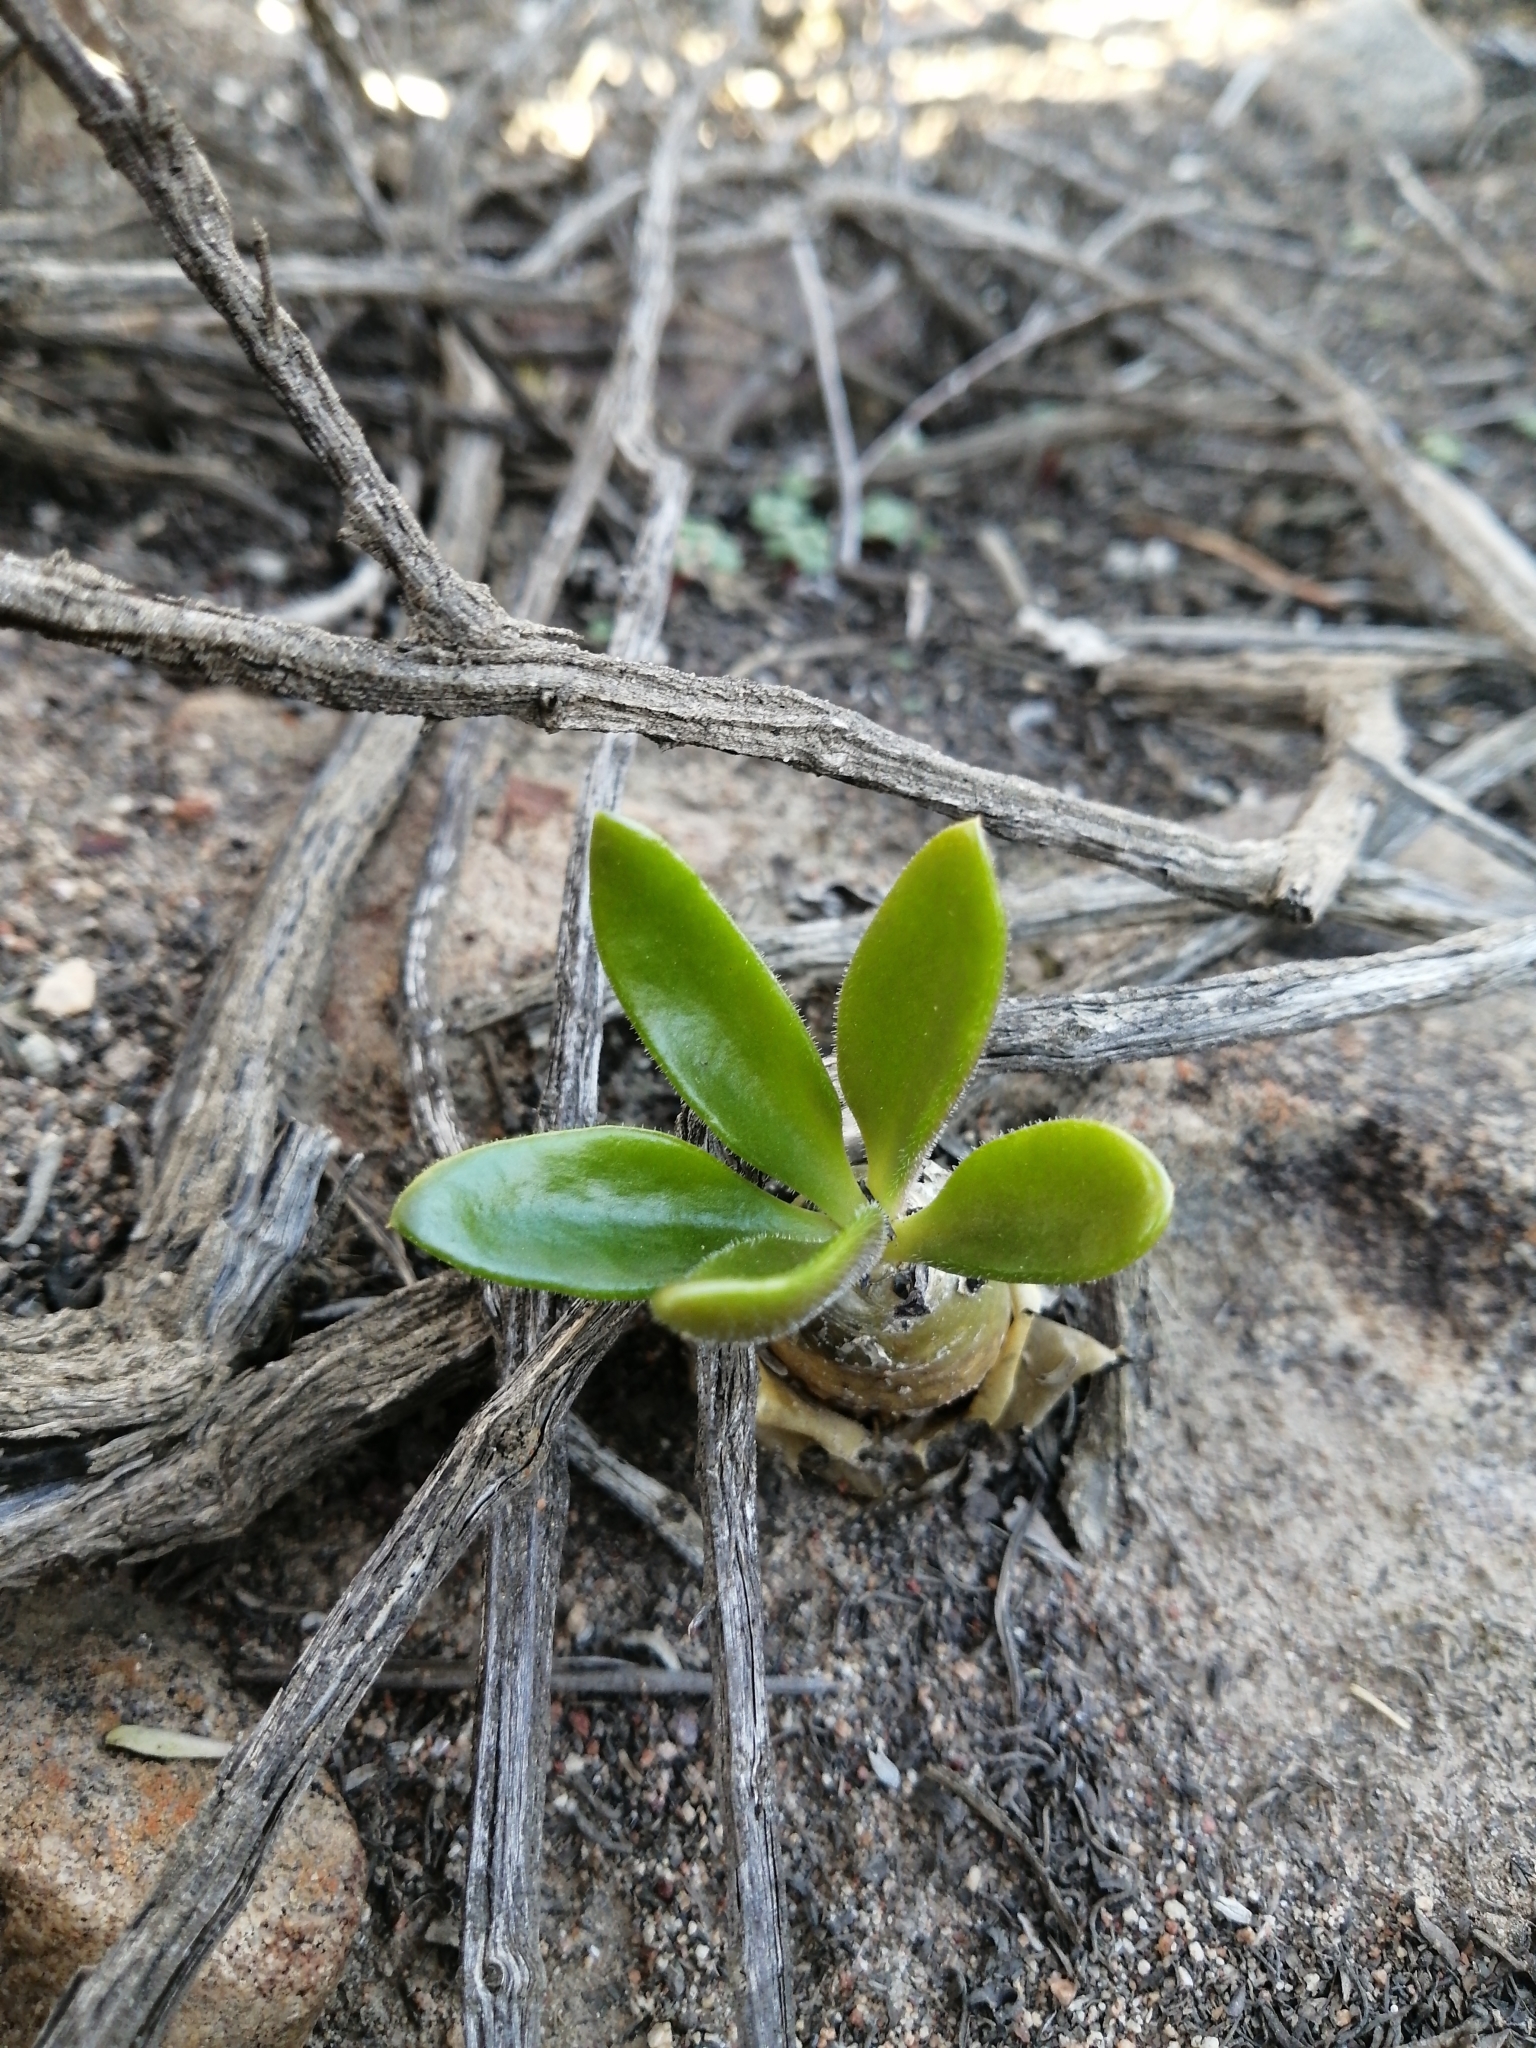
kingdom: Plantae
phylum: Tracheophyta
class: Magnoliopsida
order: Saxifragales
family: Crassulaceae
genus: Tylecodon
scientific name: Tylecodon paniculatus
